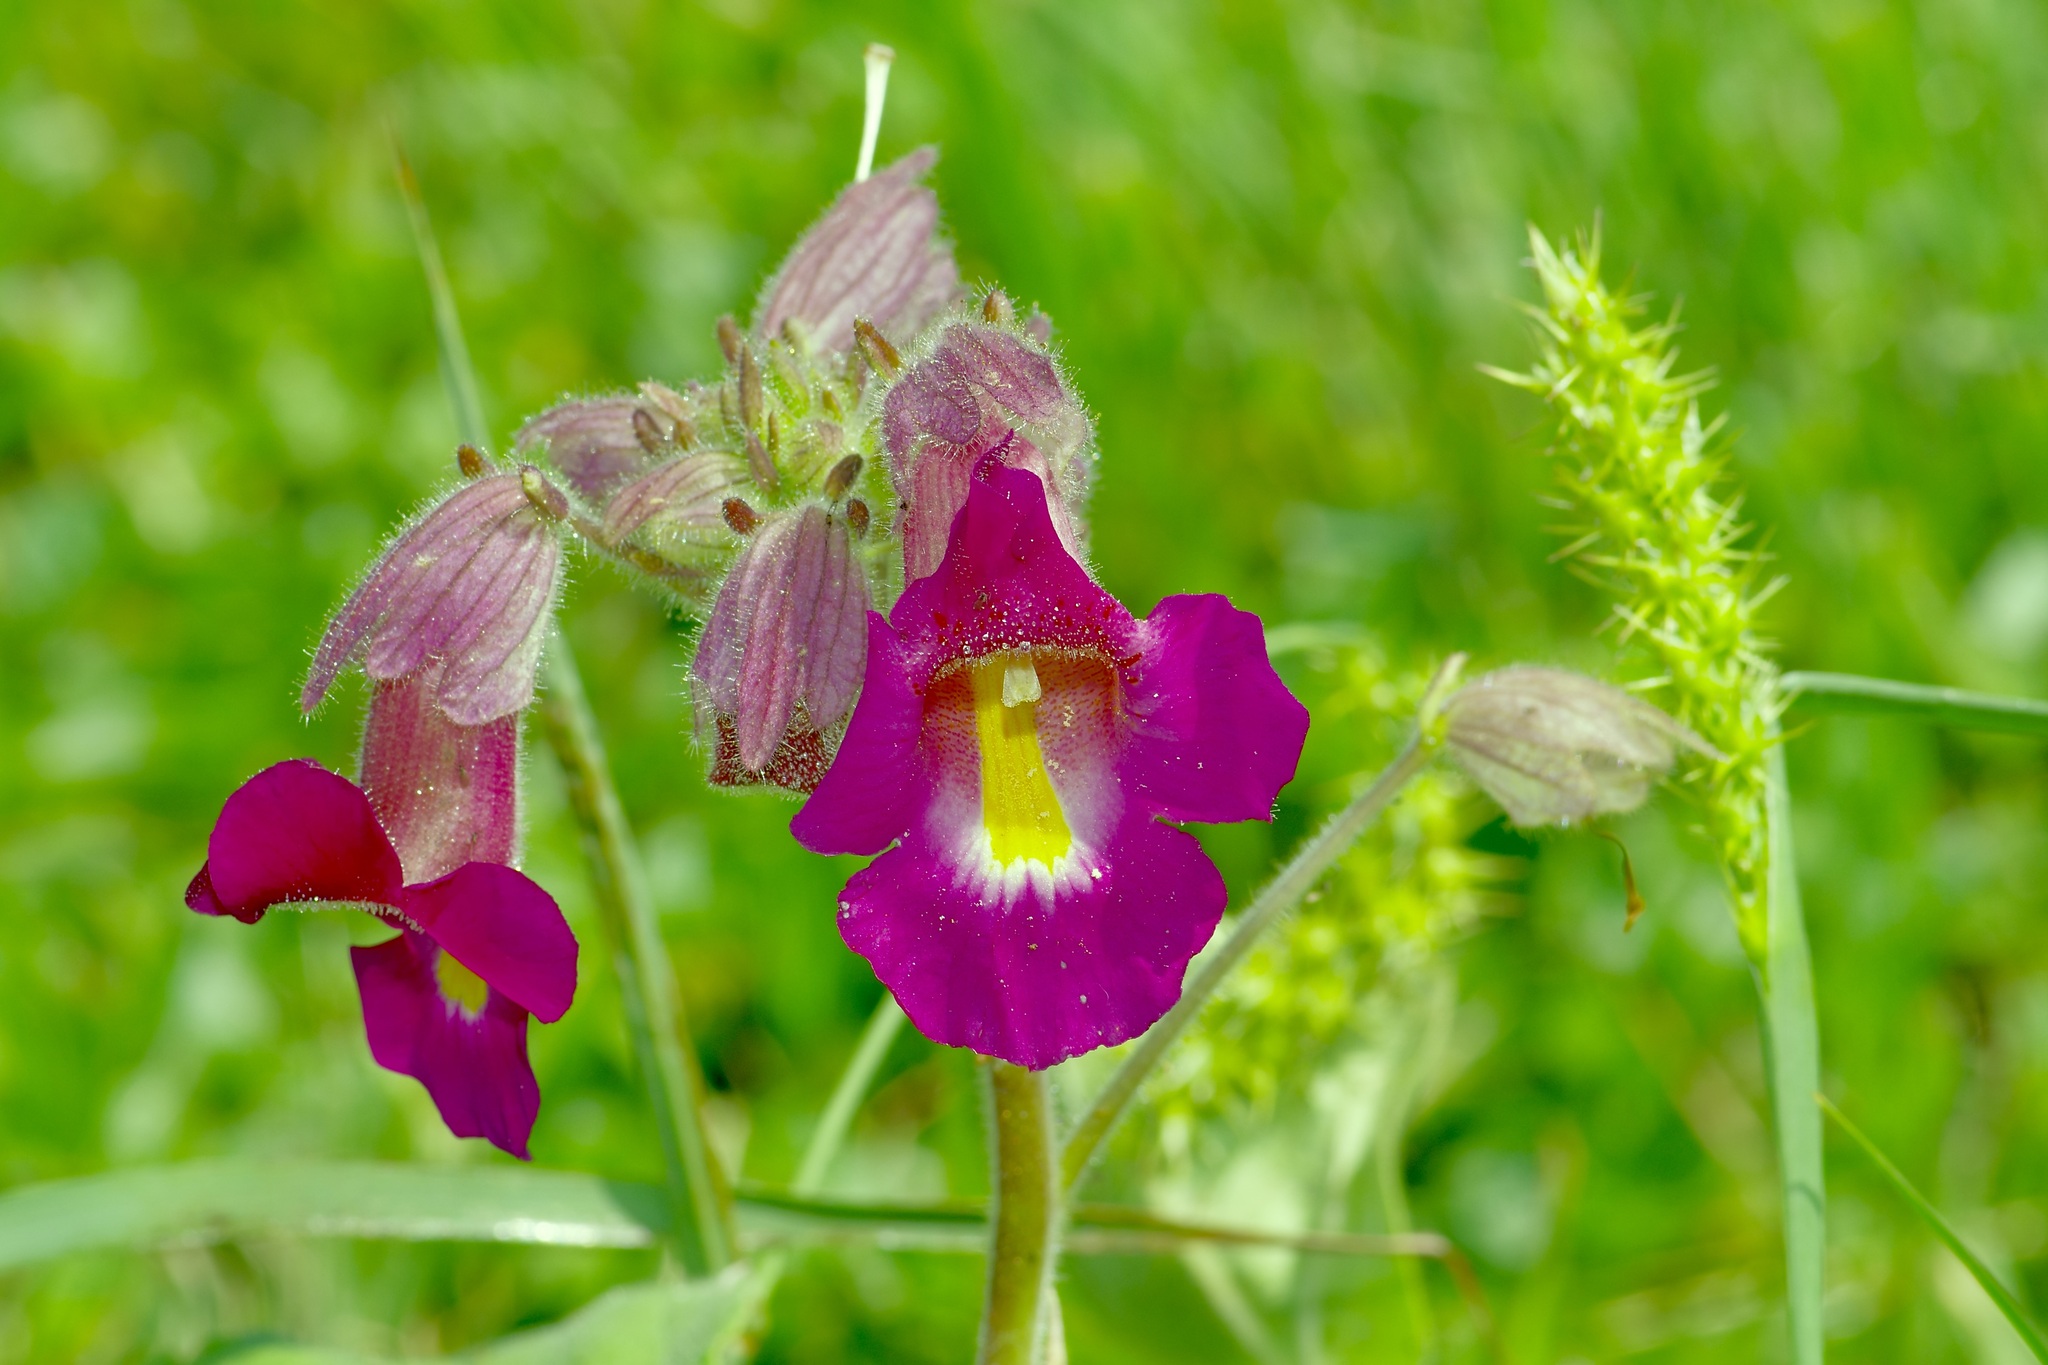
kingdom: Plantae
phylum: Tracheophyta
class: Magnoliopsida
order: Lamiales
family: Martyniaceae
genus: Proboscidea
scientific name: Proboscidea louisianica
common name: Elephant tusks
